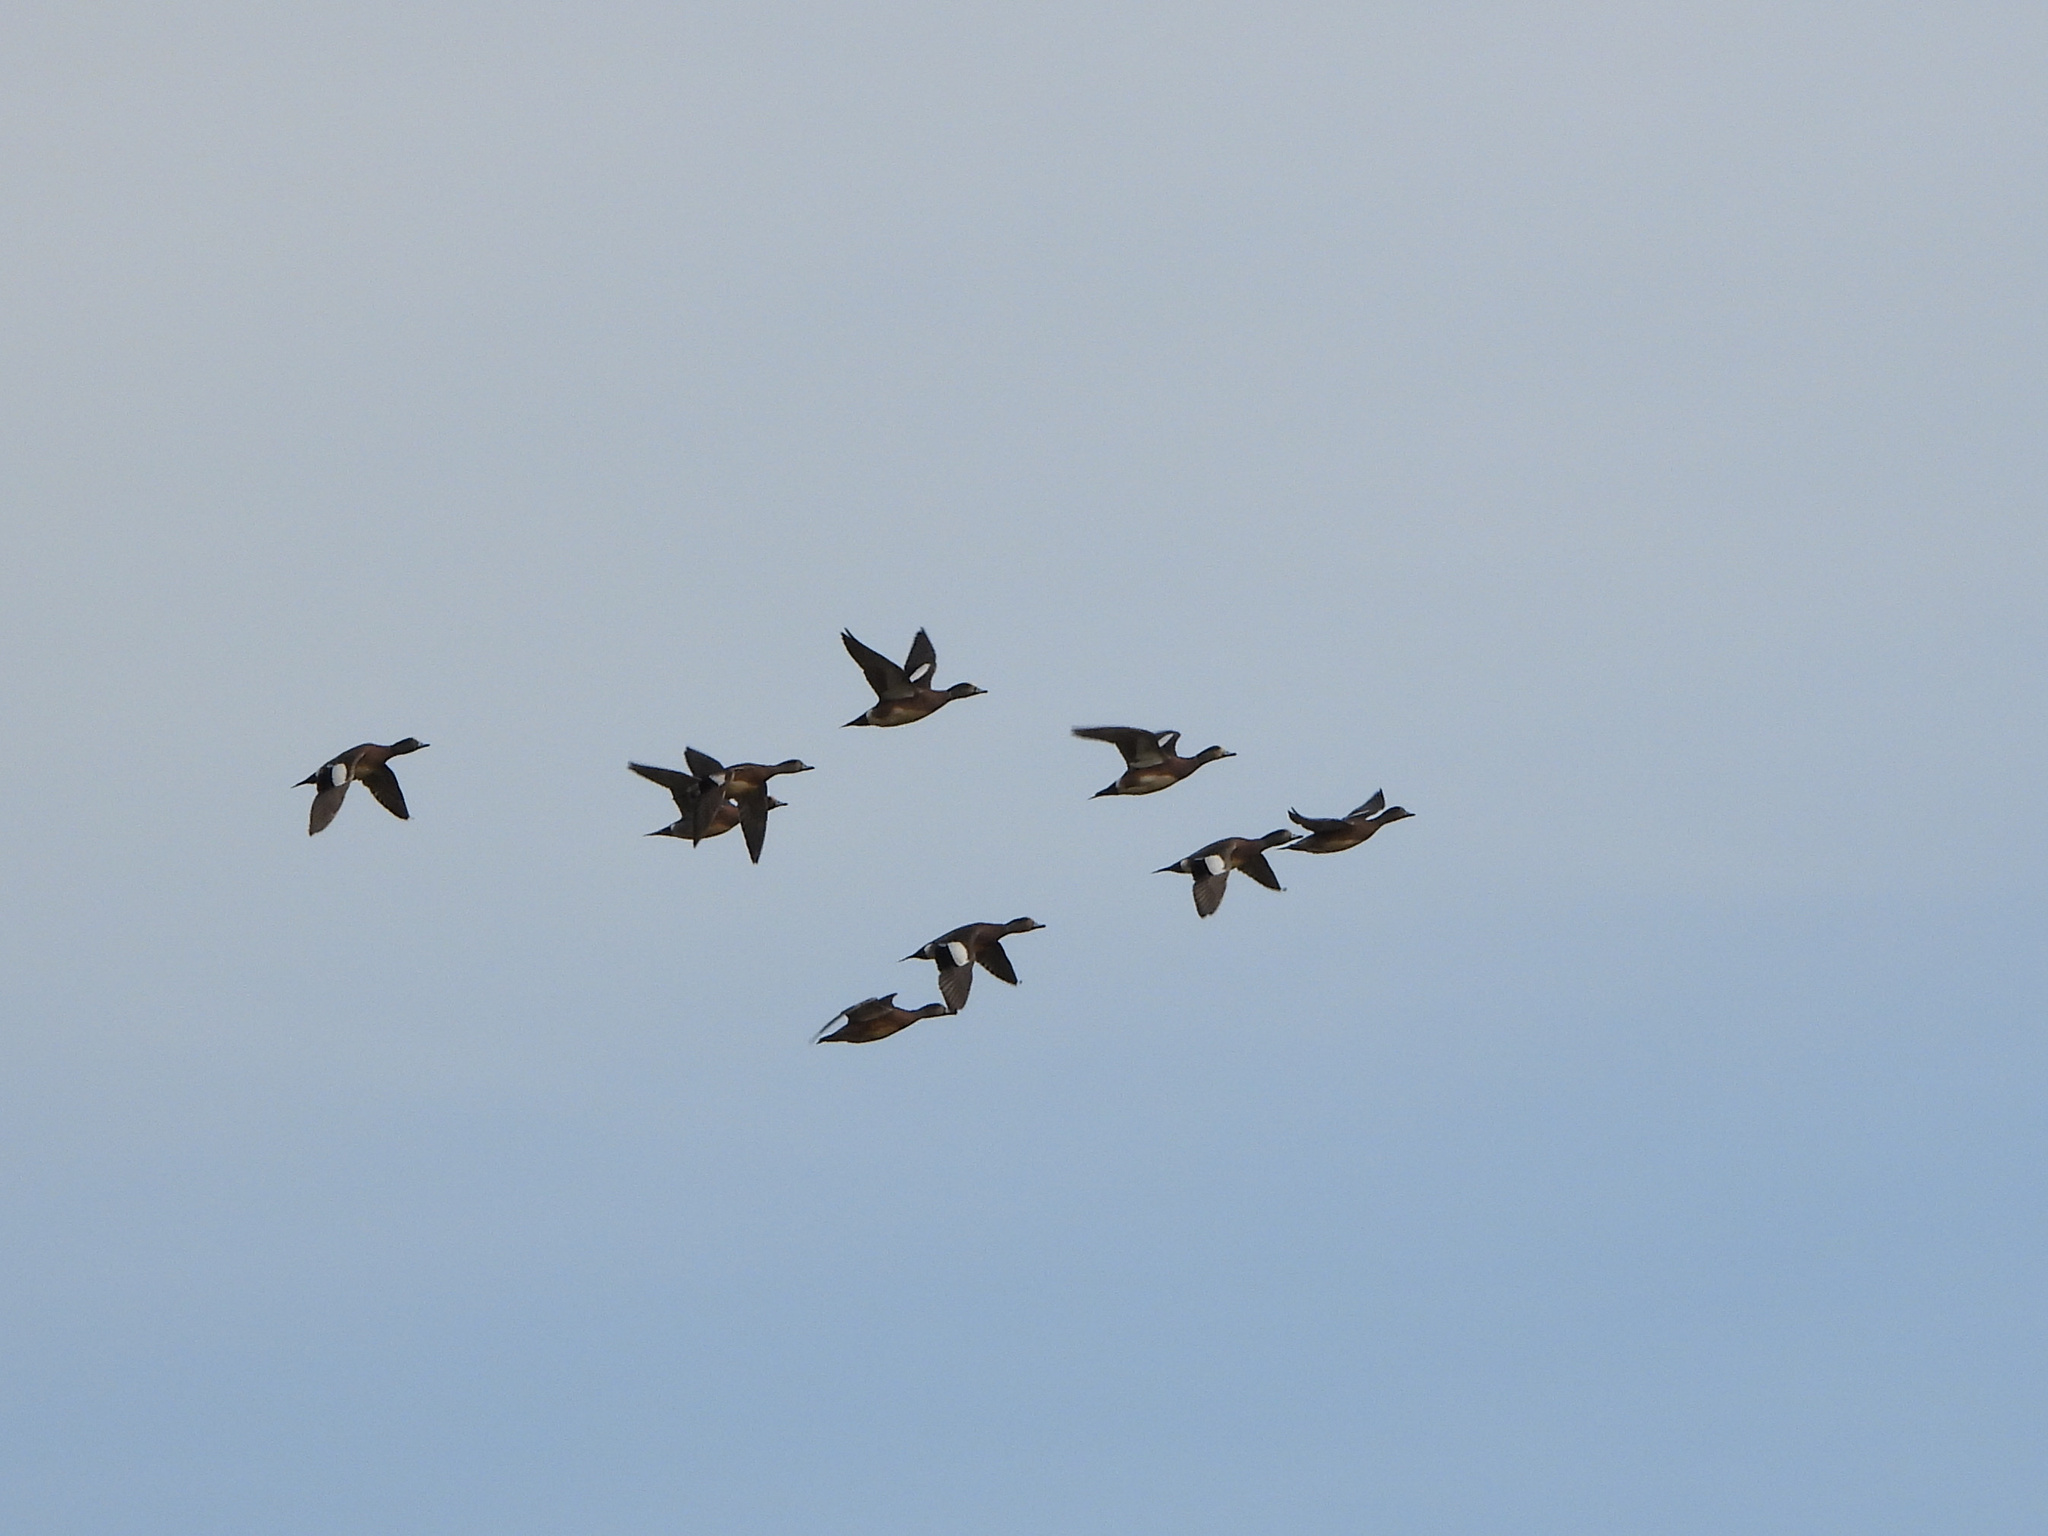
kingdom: Animalia
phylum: Chordata
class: Aves
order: Anseriformes
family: Anatidae
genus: Mareca
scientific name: Mareca americana
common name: American wigeon
